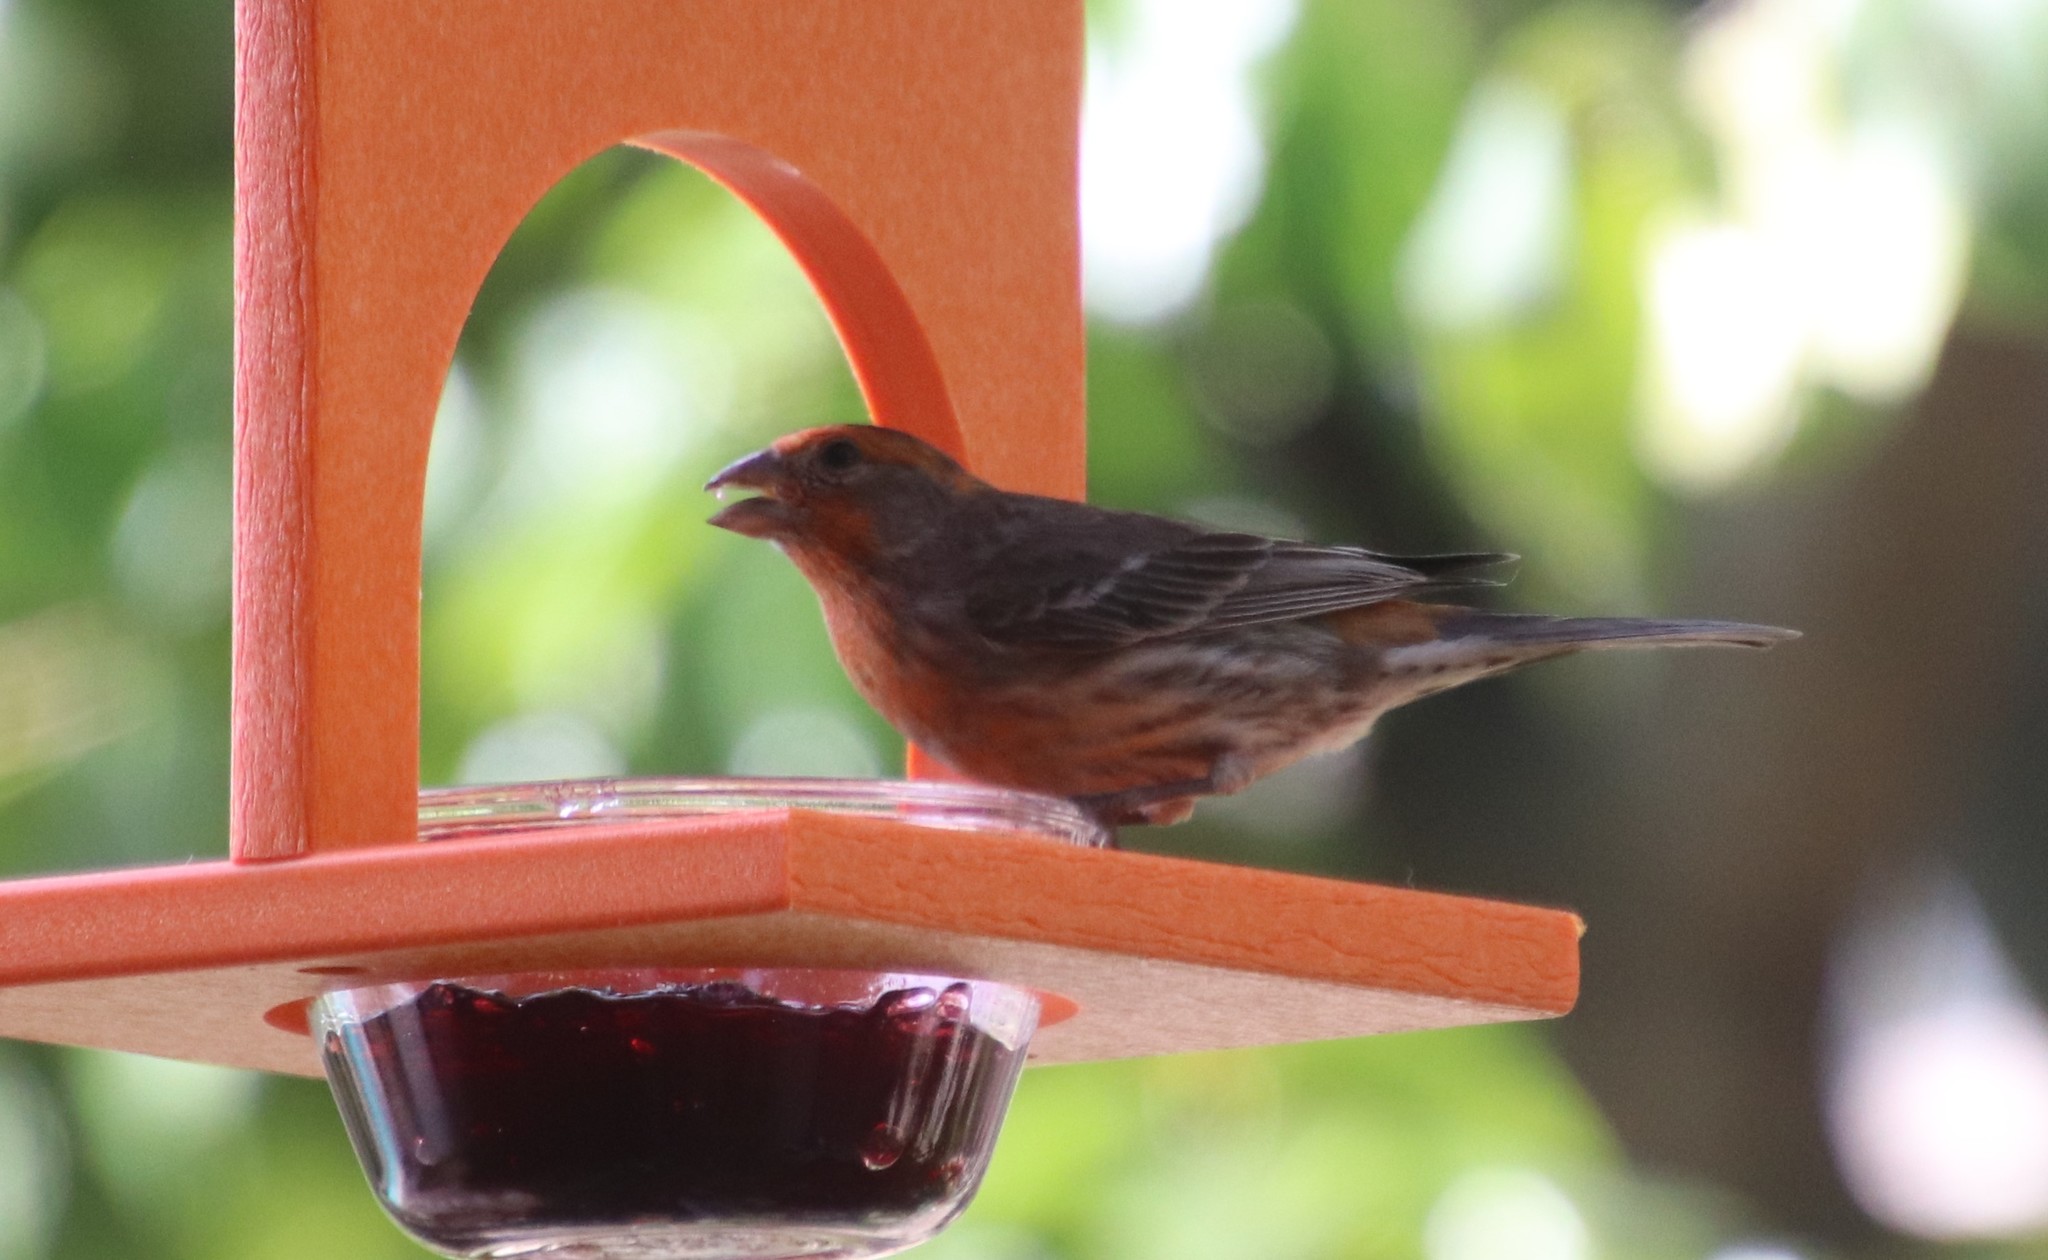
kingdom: Animalia
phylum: Chordata
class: Aves
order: Passeriformes
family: Fringillidae
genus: Haemorhous
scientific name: Haemorhous mexicanus
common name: House finch
